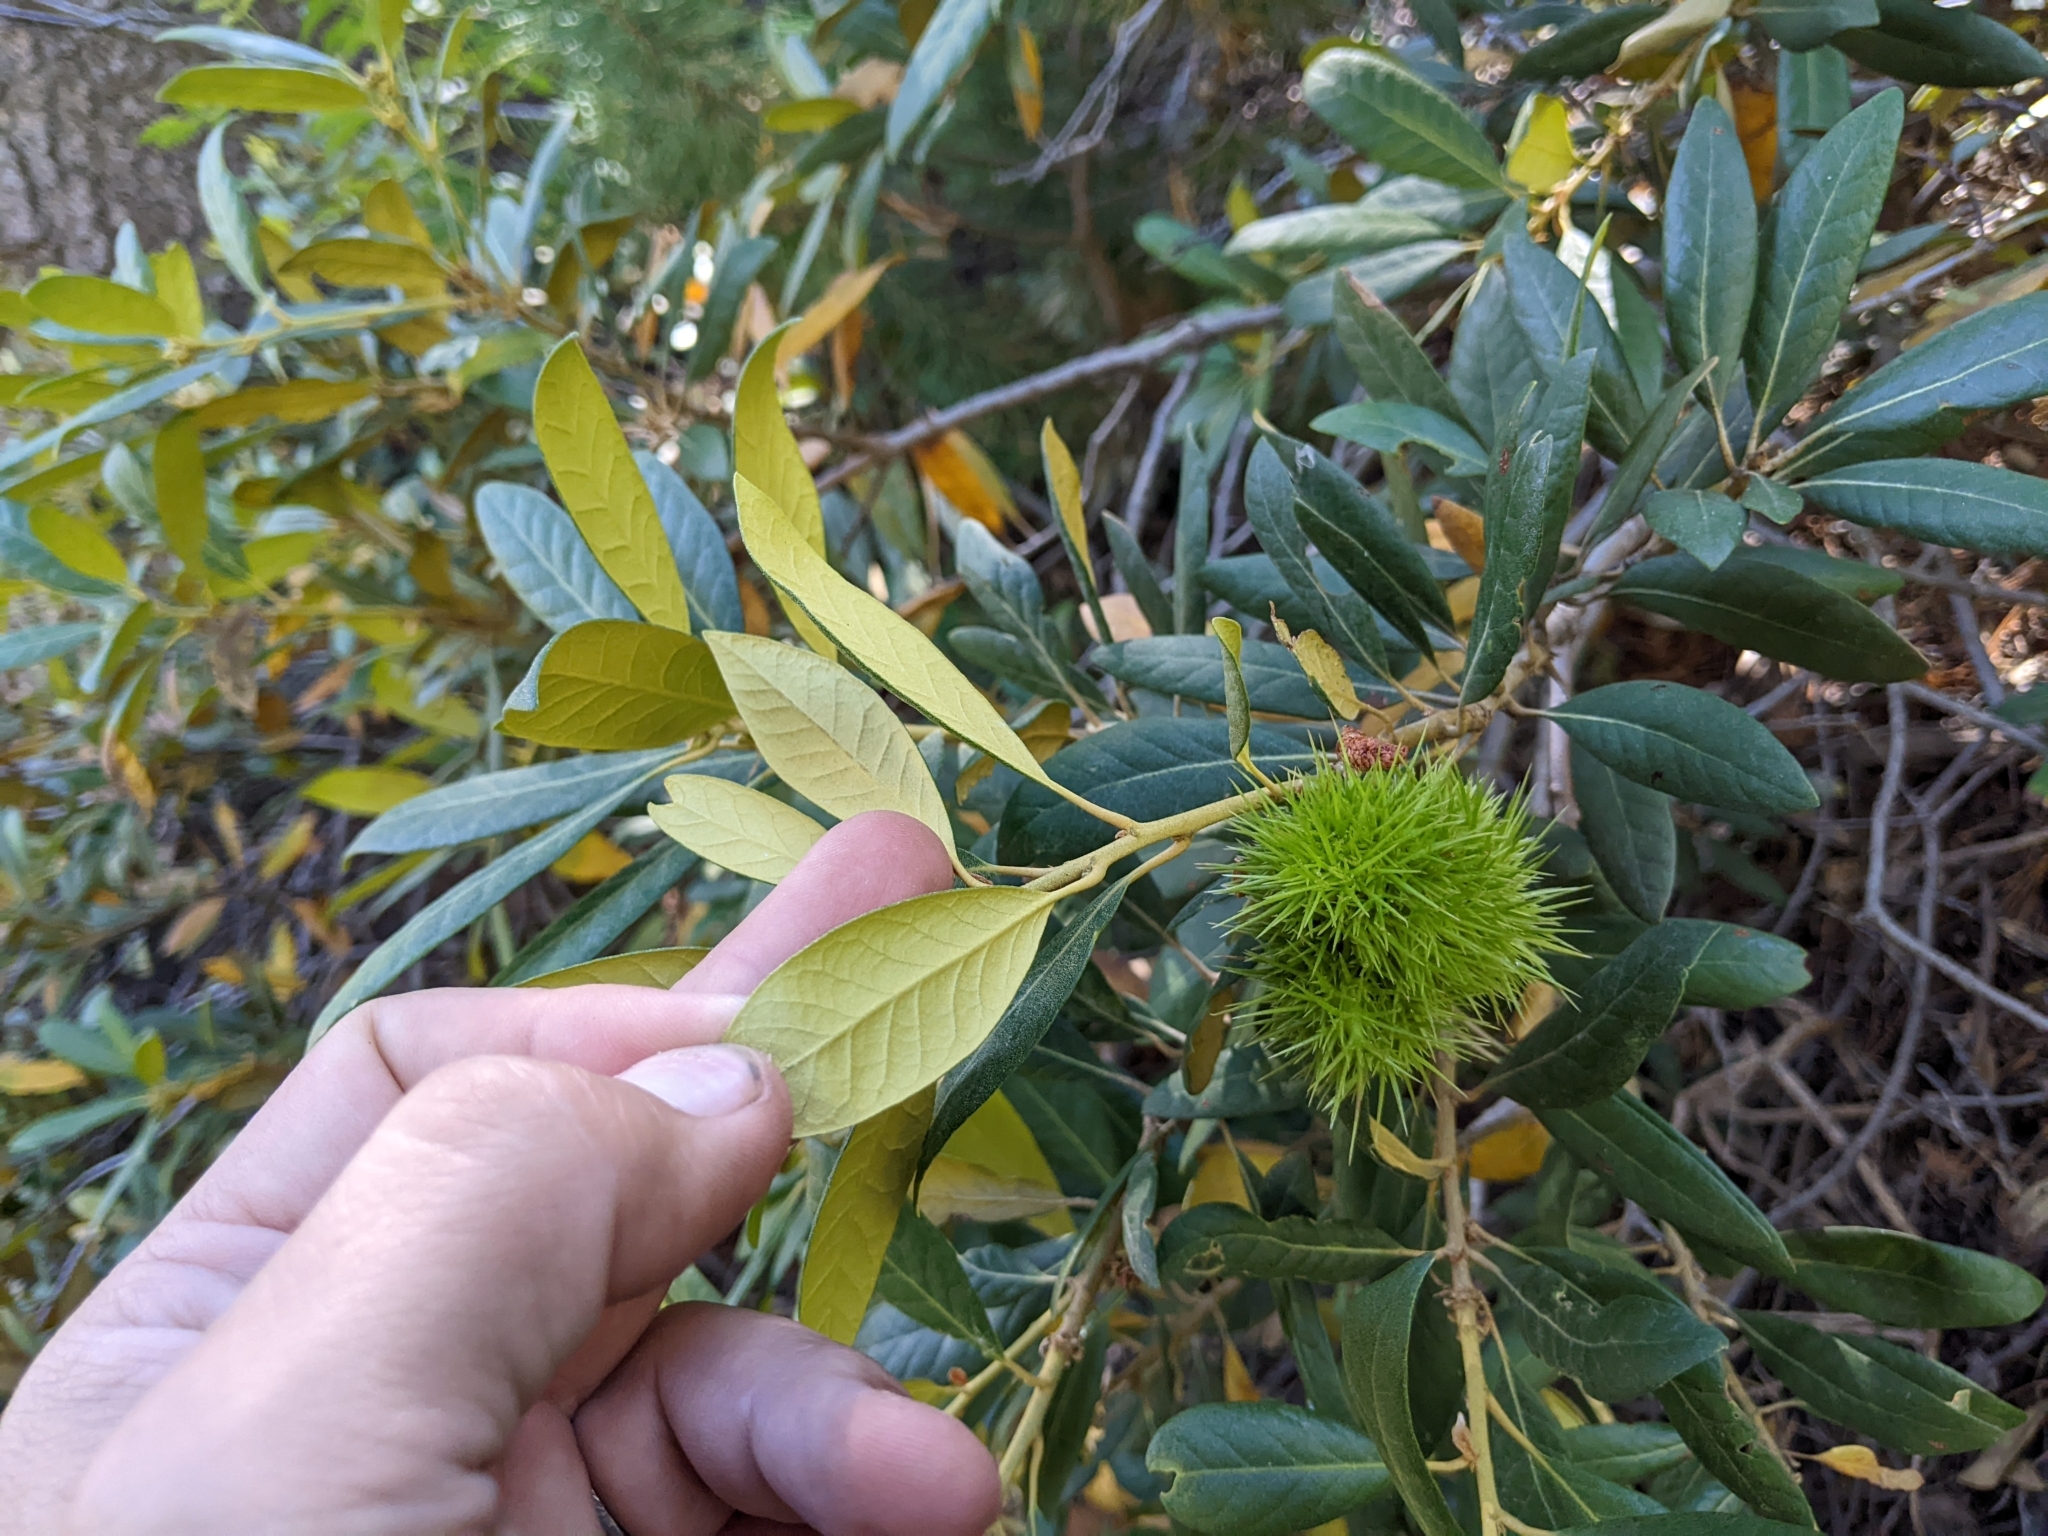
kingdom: Plantae
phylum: Tracheophyta
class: Magnoliopsida
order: Fagales
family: Fagaceae
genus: Chrysolepis
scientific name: Chrysolepis sempervirens
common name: Bush chinquapin
